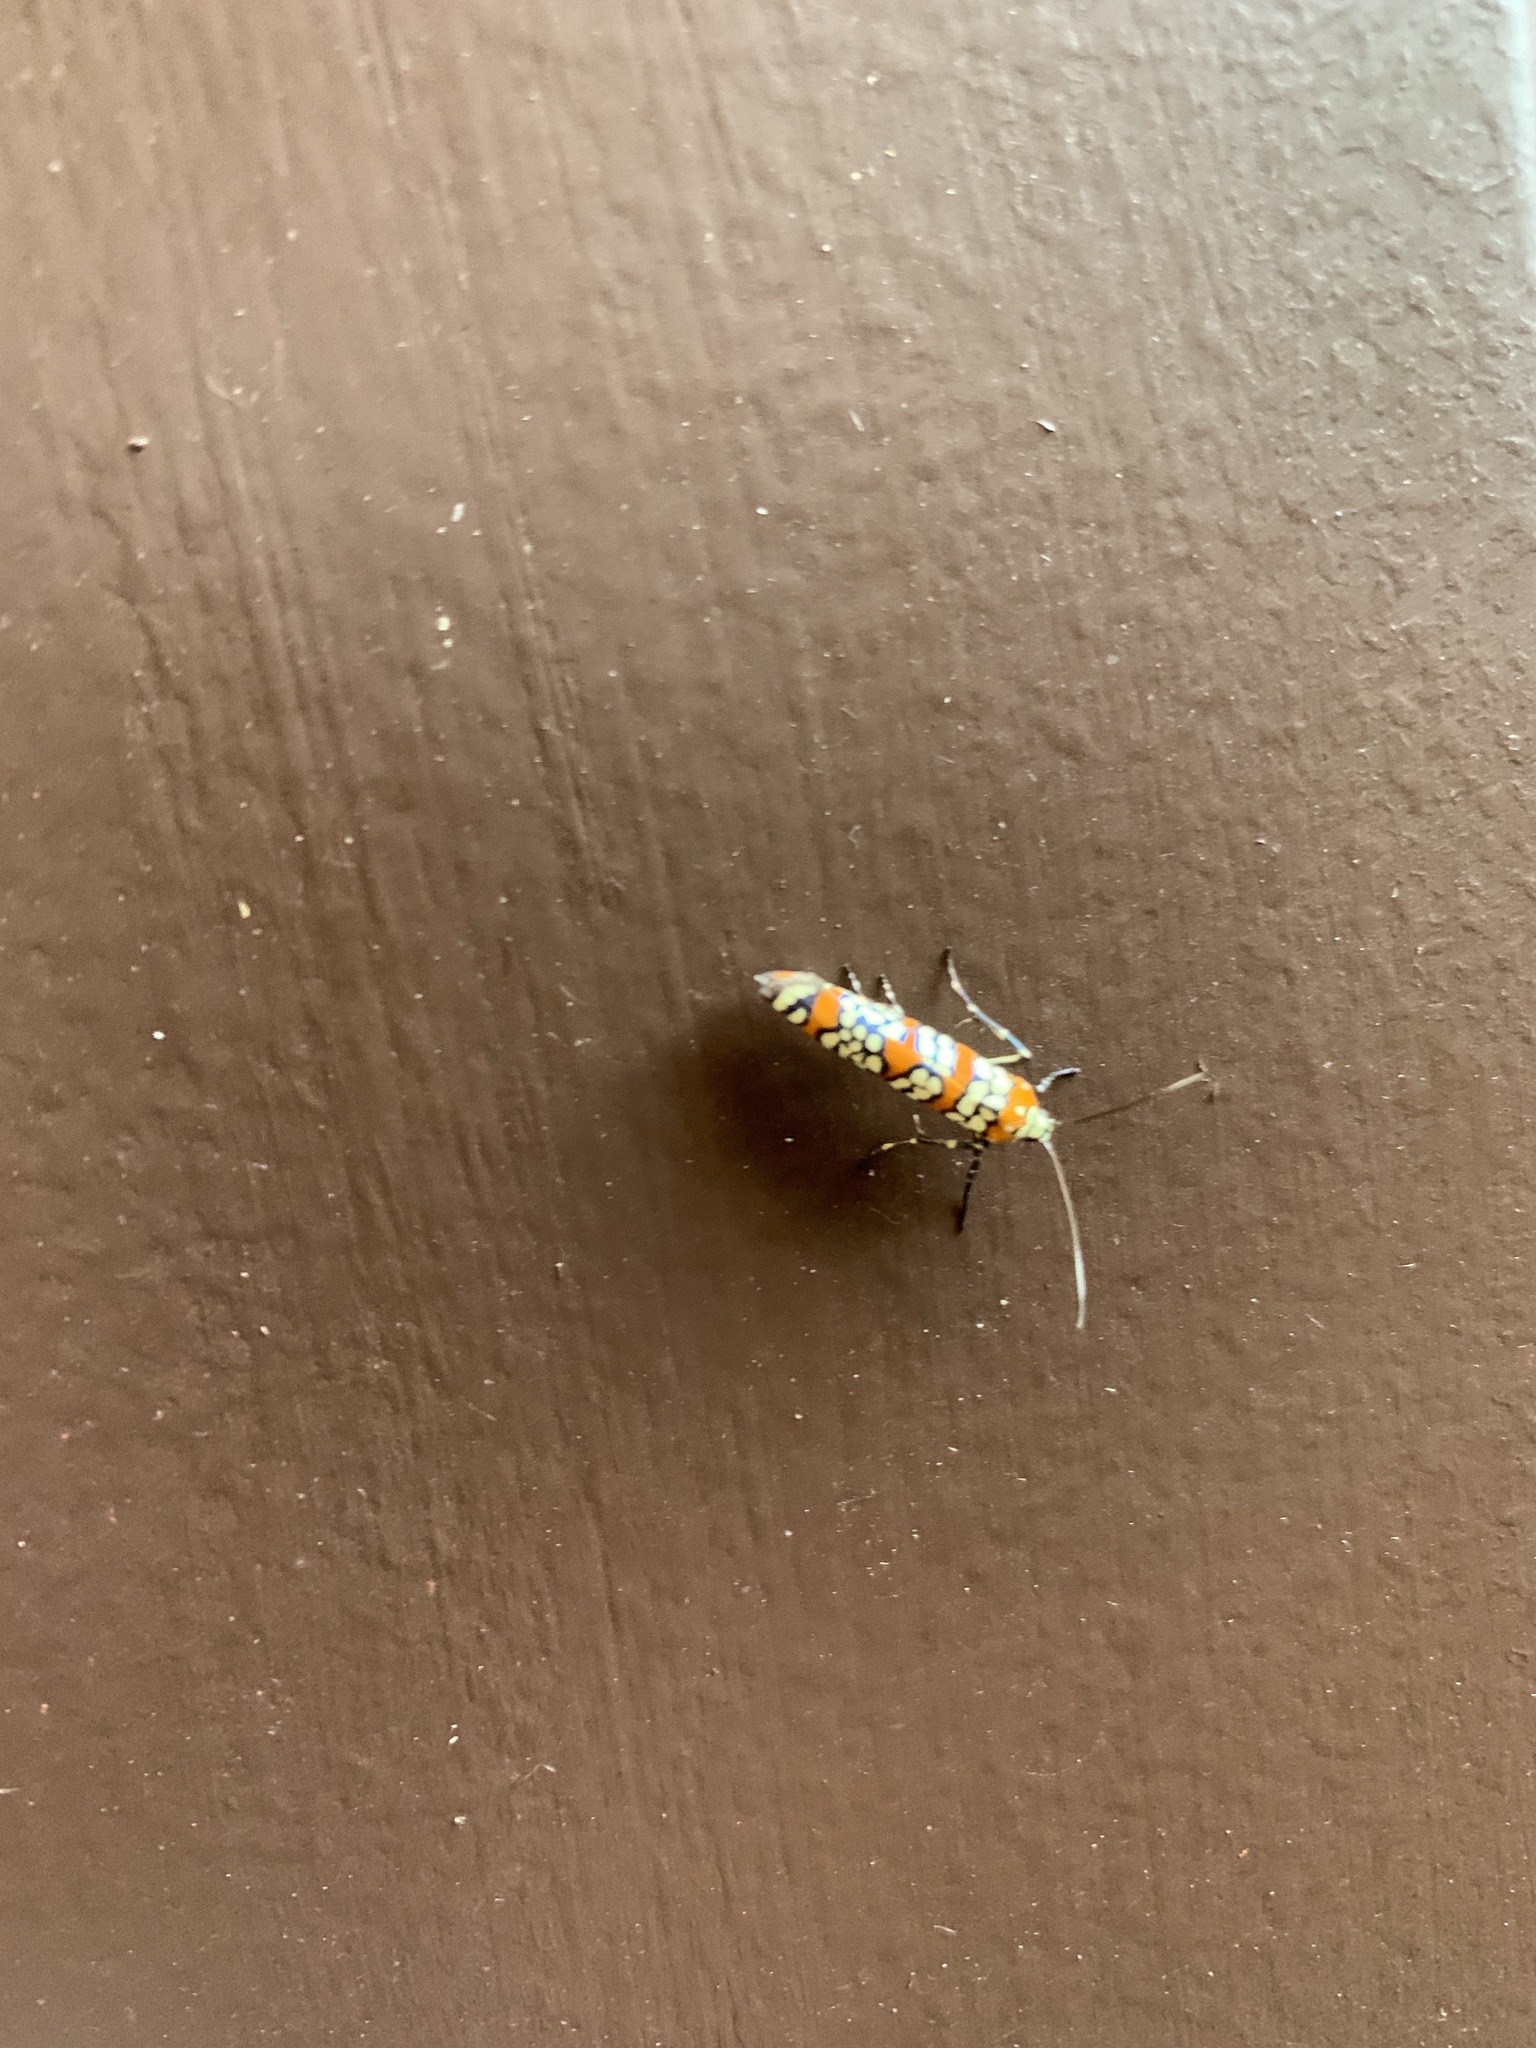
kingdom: Animalia
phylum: Arthropoda
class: Insecta
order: Lepidoptera
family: Attevidae
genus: Atteva
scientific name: Atteva punctella
